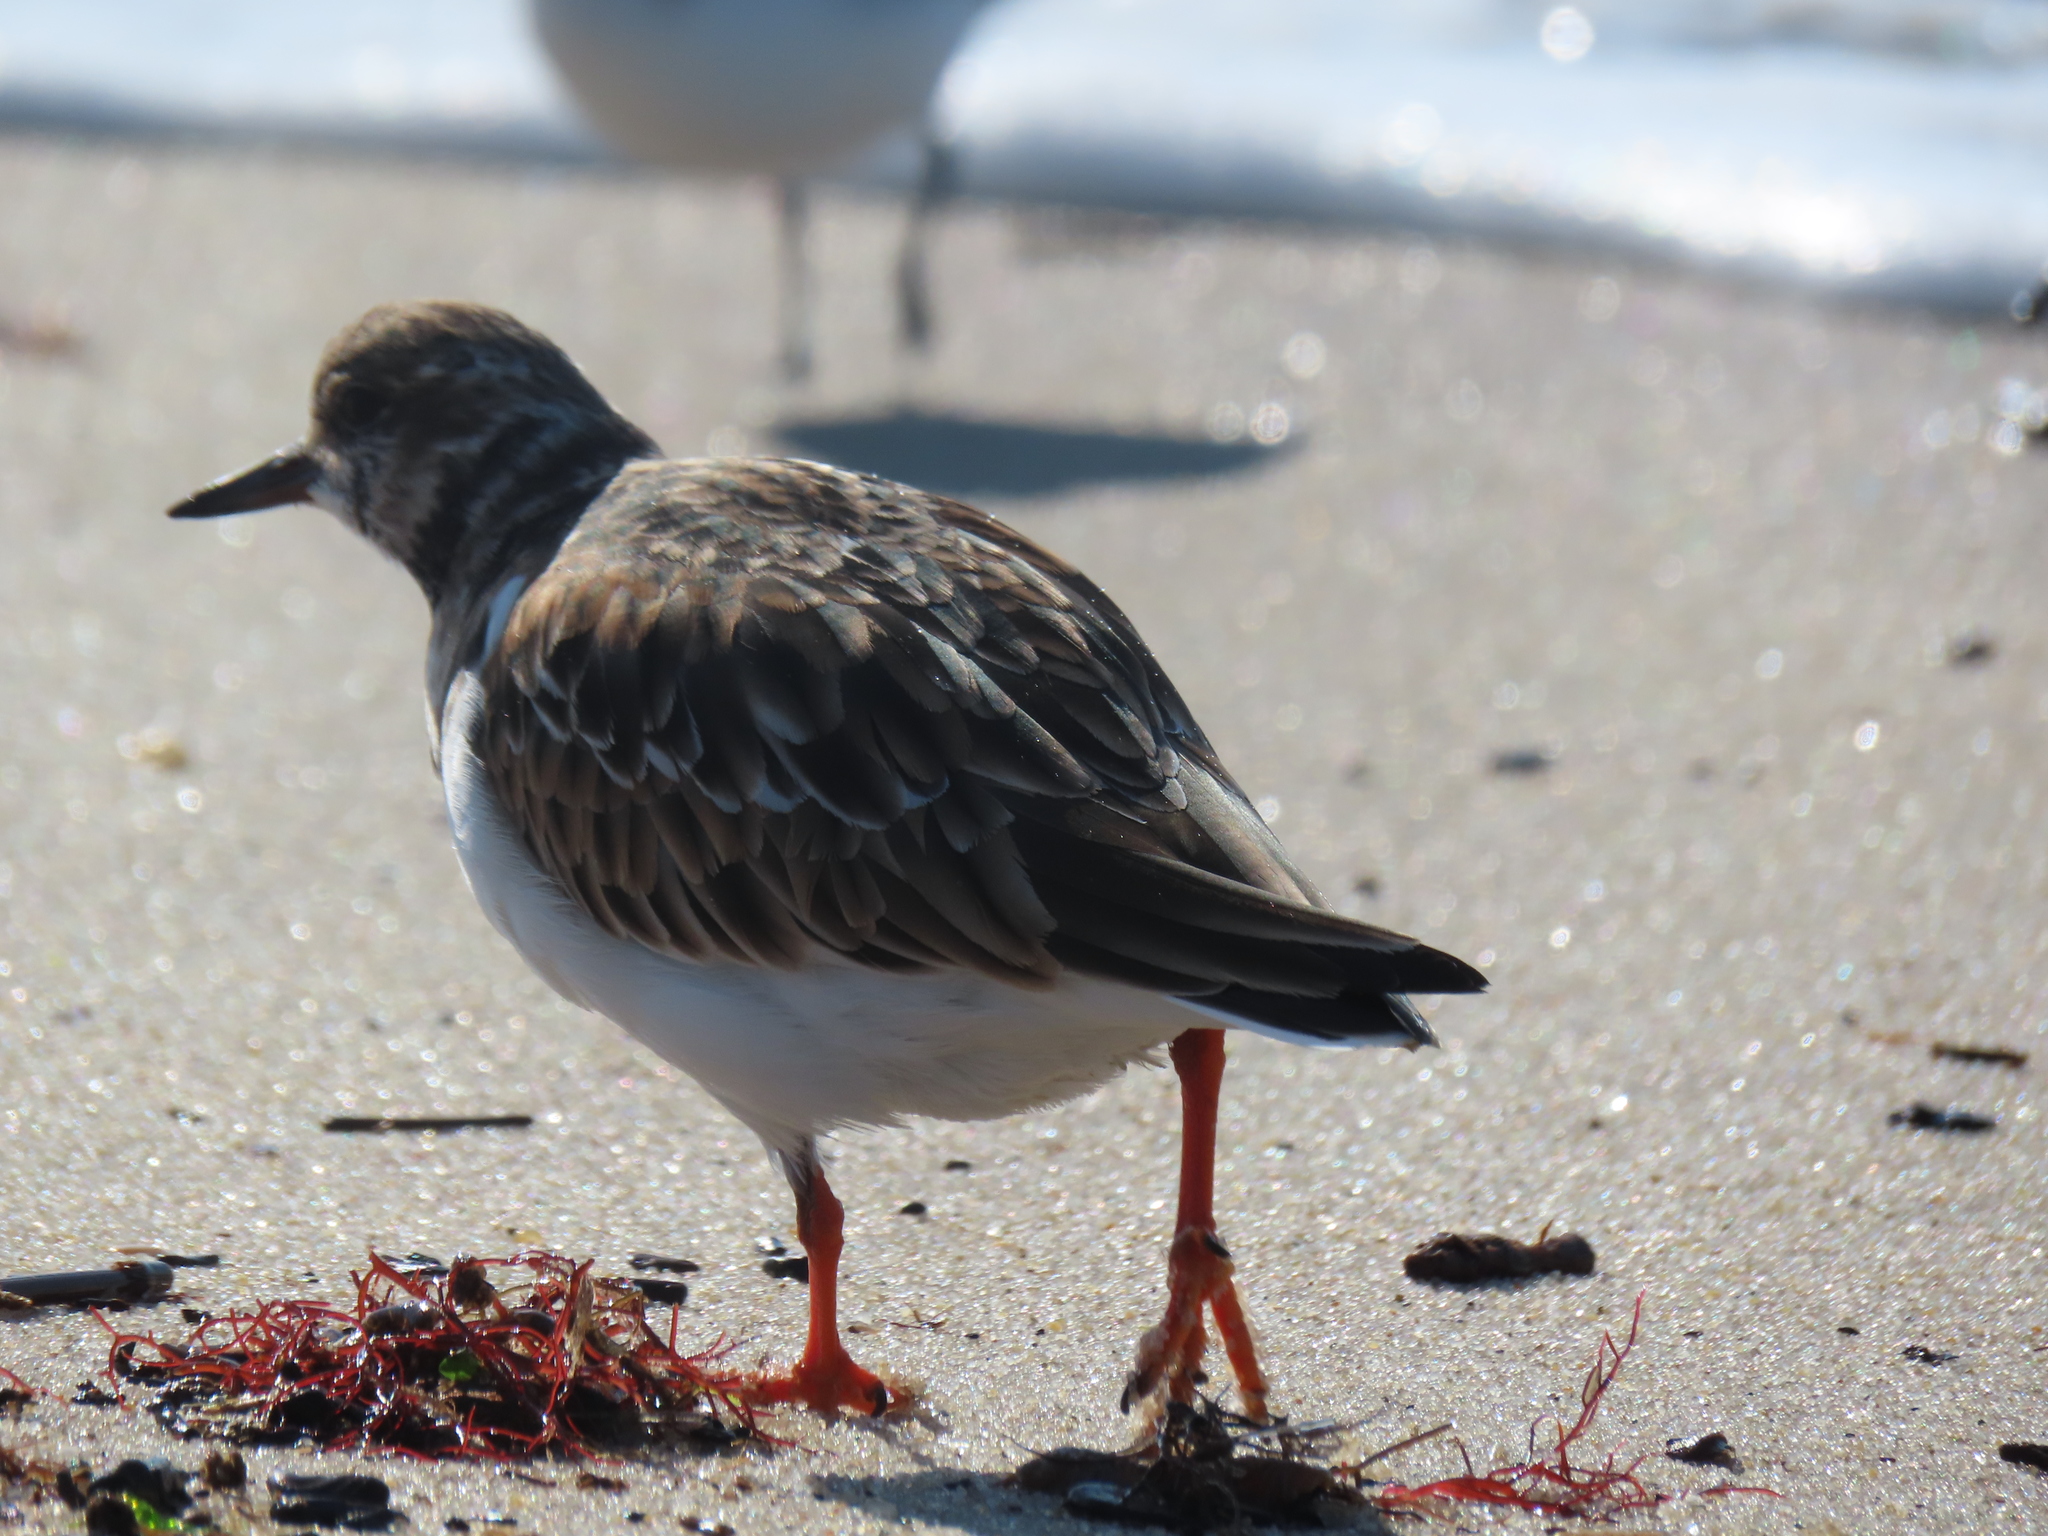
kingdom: Animalia
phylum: Chordata
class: Aves
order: Charadriiformes
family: Scolopacidae
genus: Arenaria
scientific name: Arenaria interpres
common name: Ruddy turnstone
